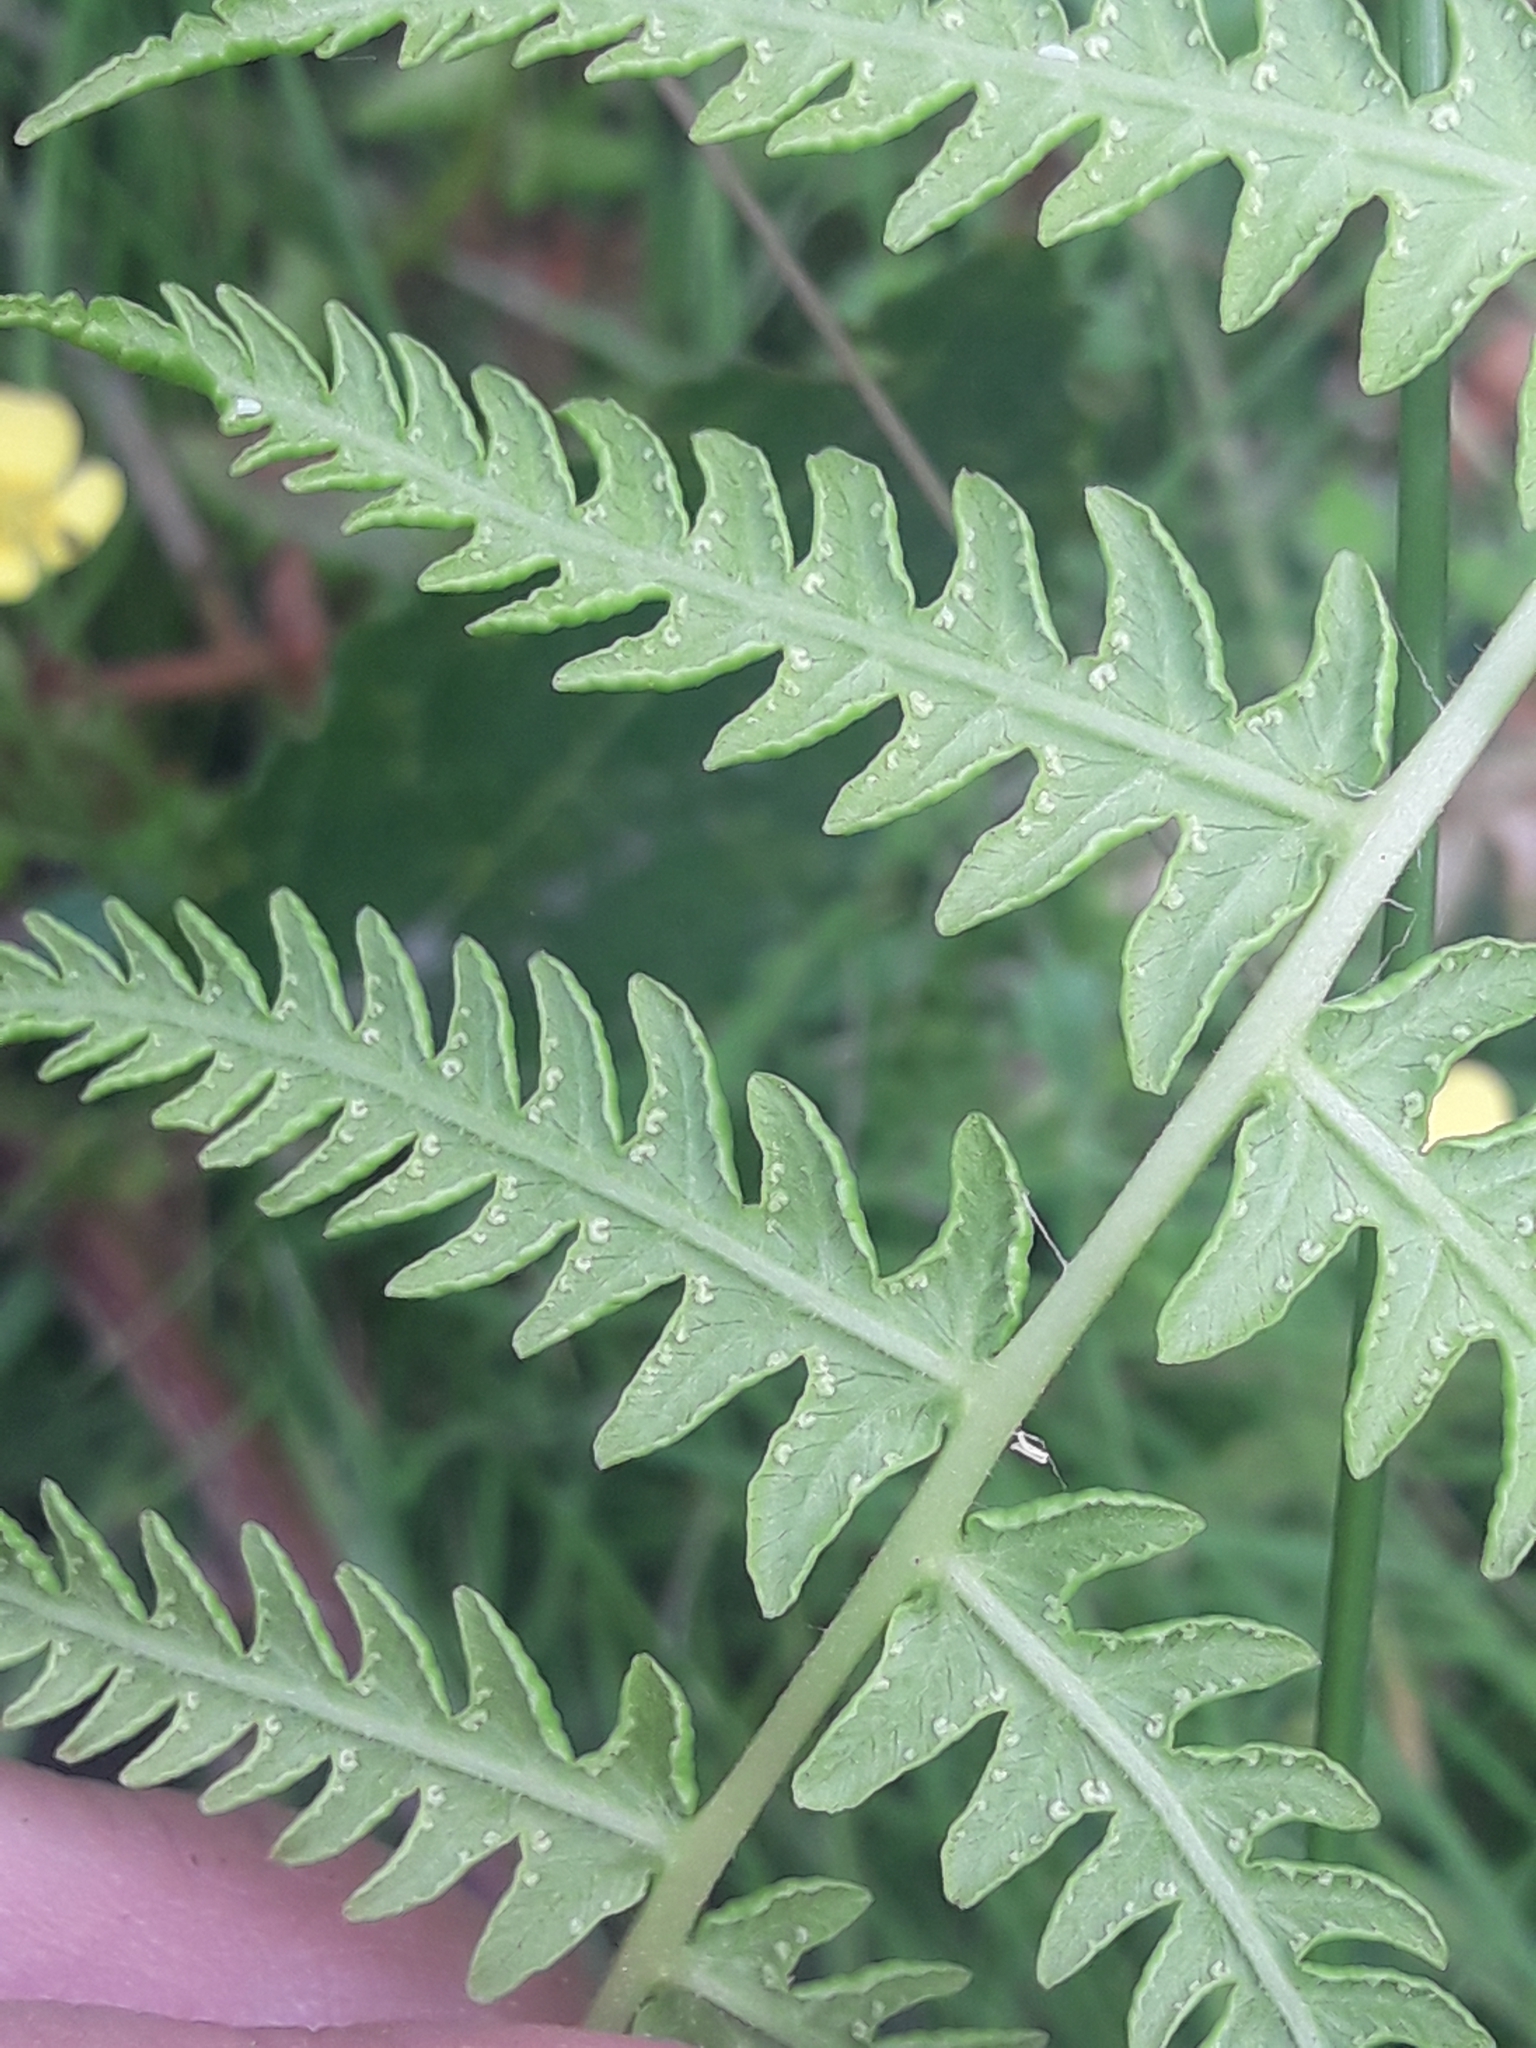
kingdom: Plantae
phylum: Tracheophyta
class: Polypodiopsida
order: Polypodiales
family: Thelypteridaceae
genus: Oreopteris
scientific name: Oreopteris limbosperma
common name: Lemon-scented fern
